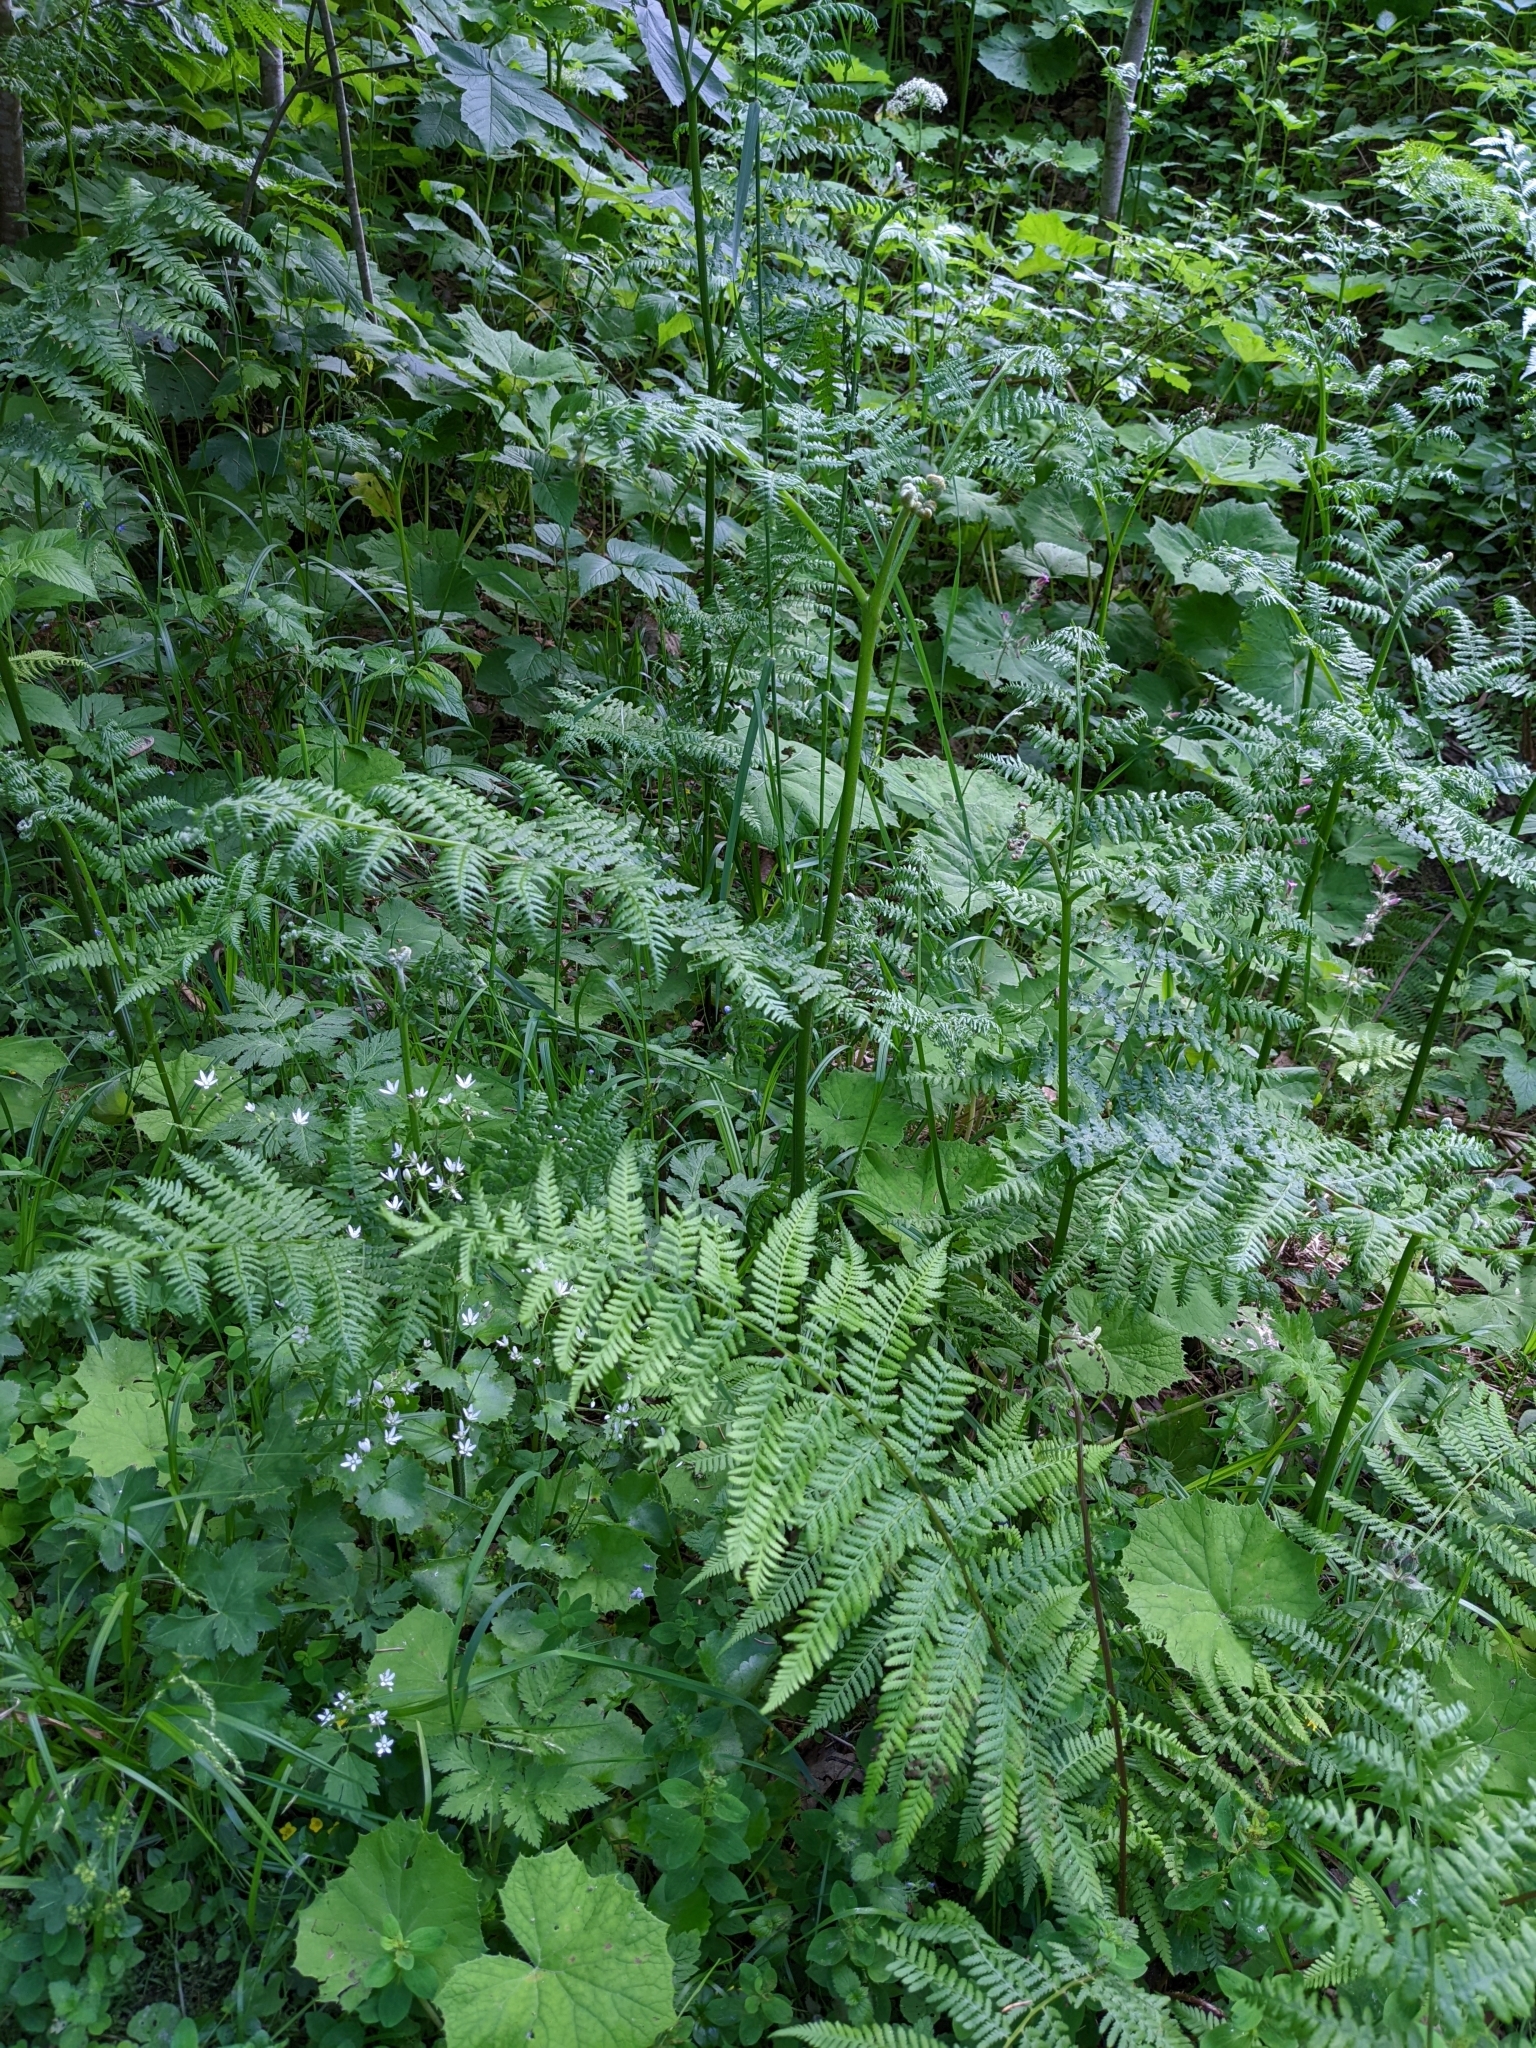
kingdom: Plantae
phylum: Tracheophyta
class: Polypodiopsida
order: Polypodiales
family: Dennstaedtiaceae
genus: Pteridium
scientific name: Pteridium aquilinum
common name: Bracken
